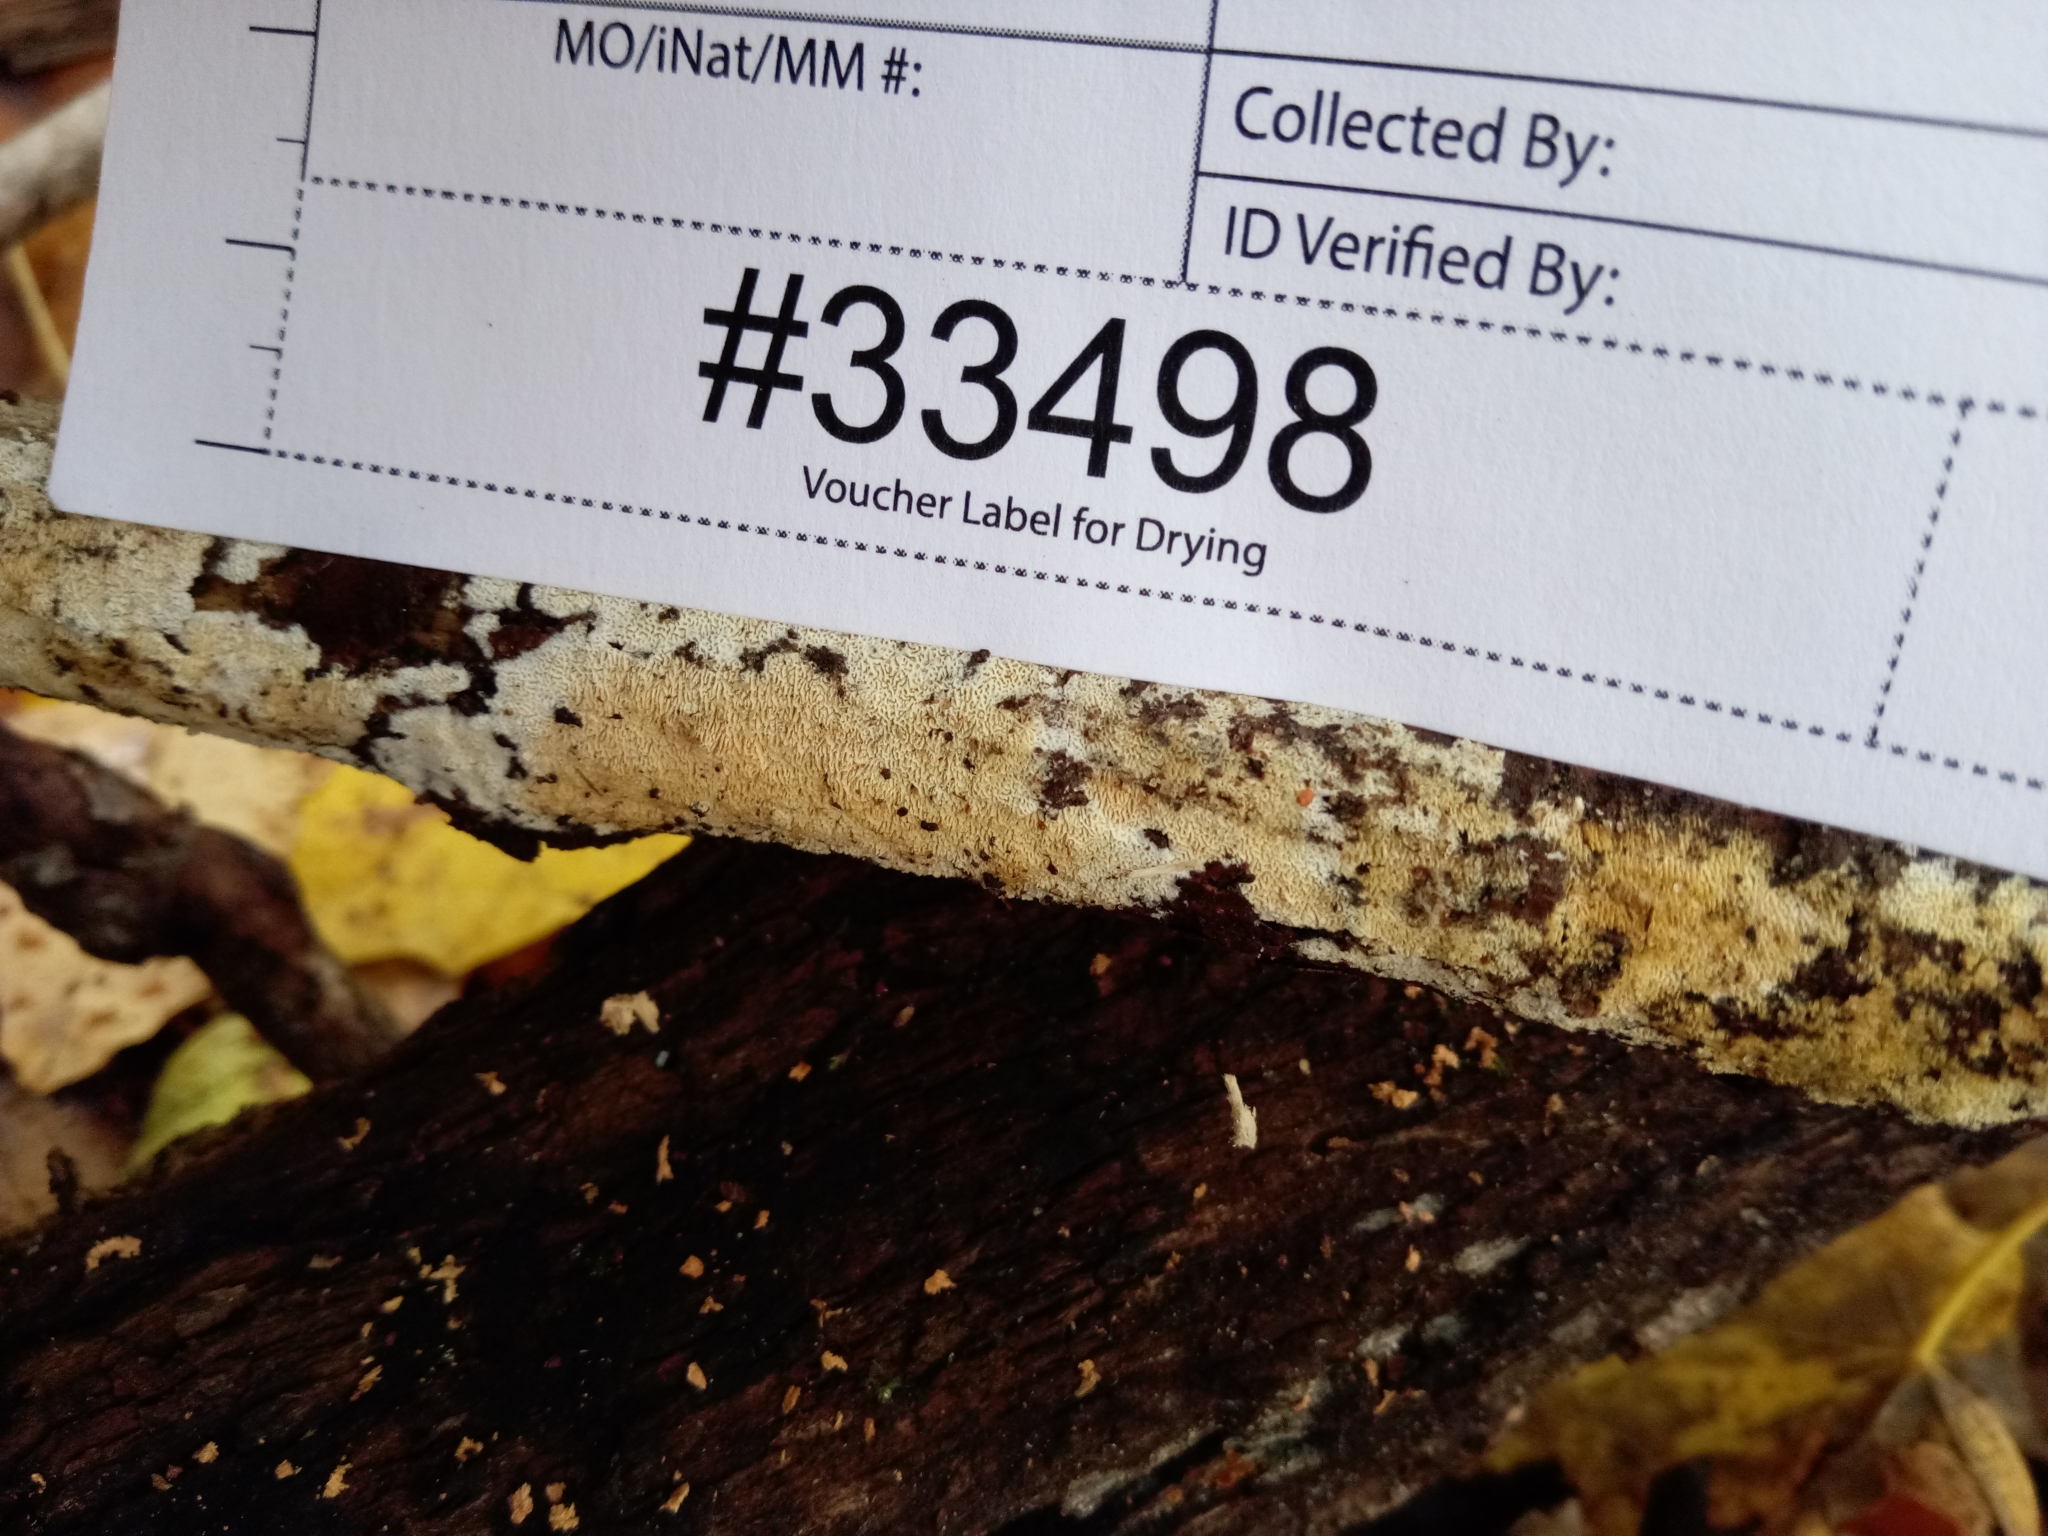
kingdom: Fungi
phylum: Basidiomycota
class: Agaricomycetes
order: Hymenochaetales
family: Schizoporaceae
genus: Xylodon
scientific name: Xylodon laurentianus
